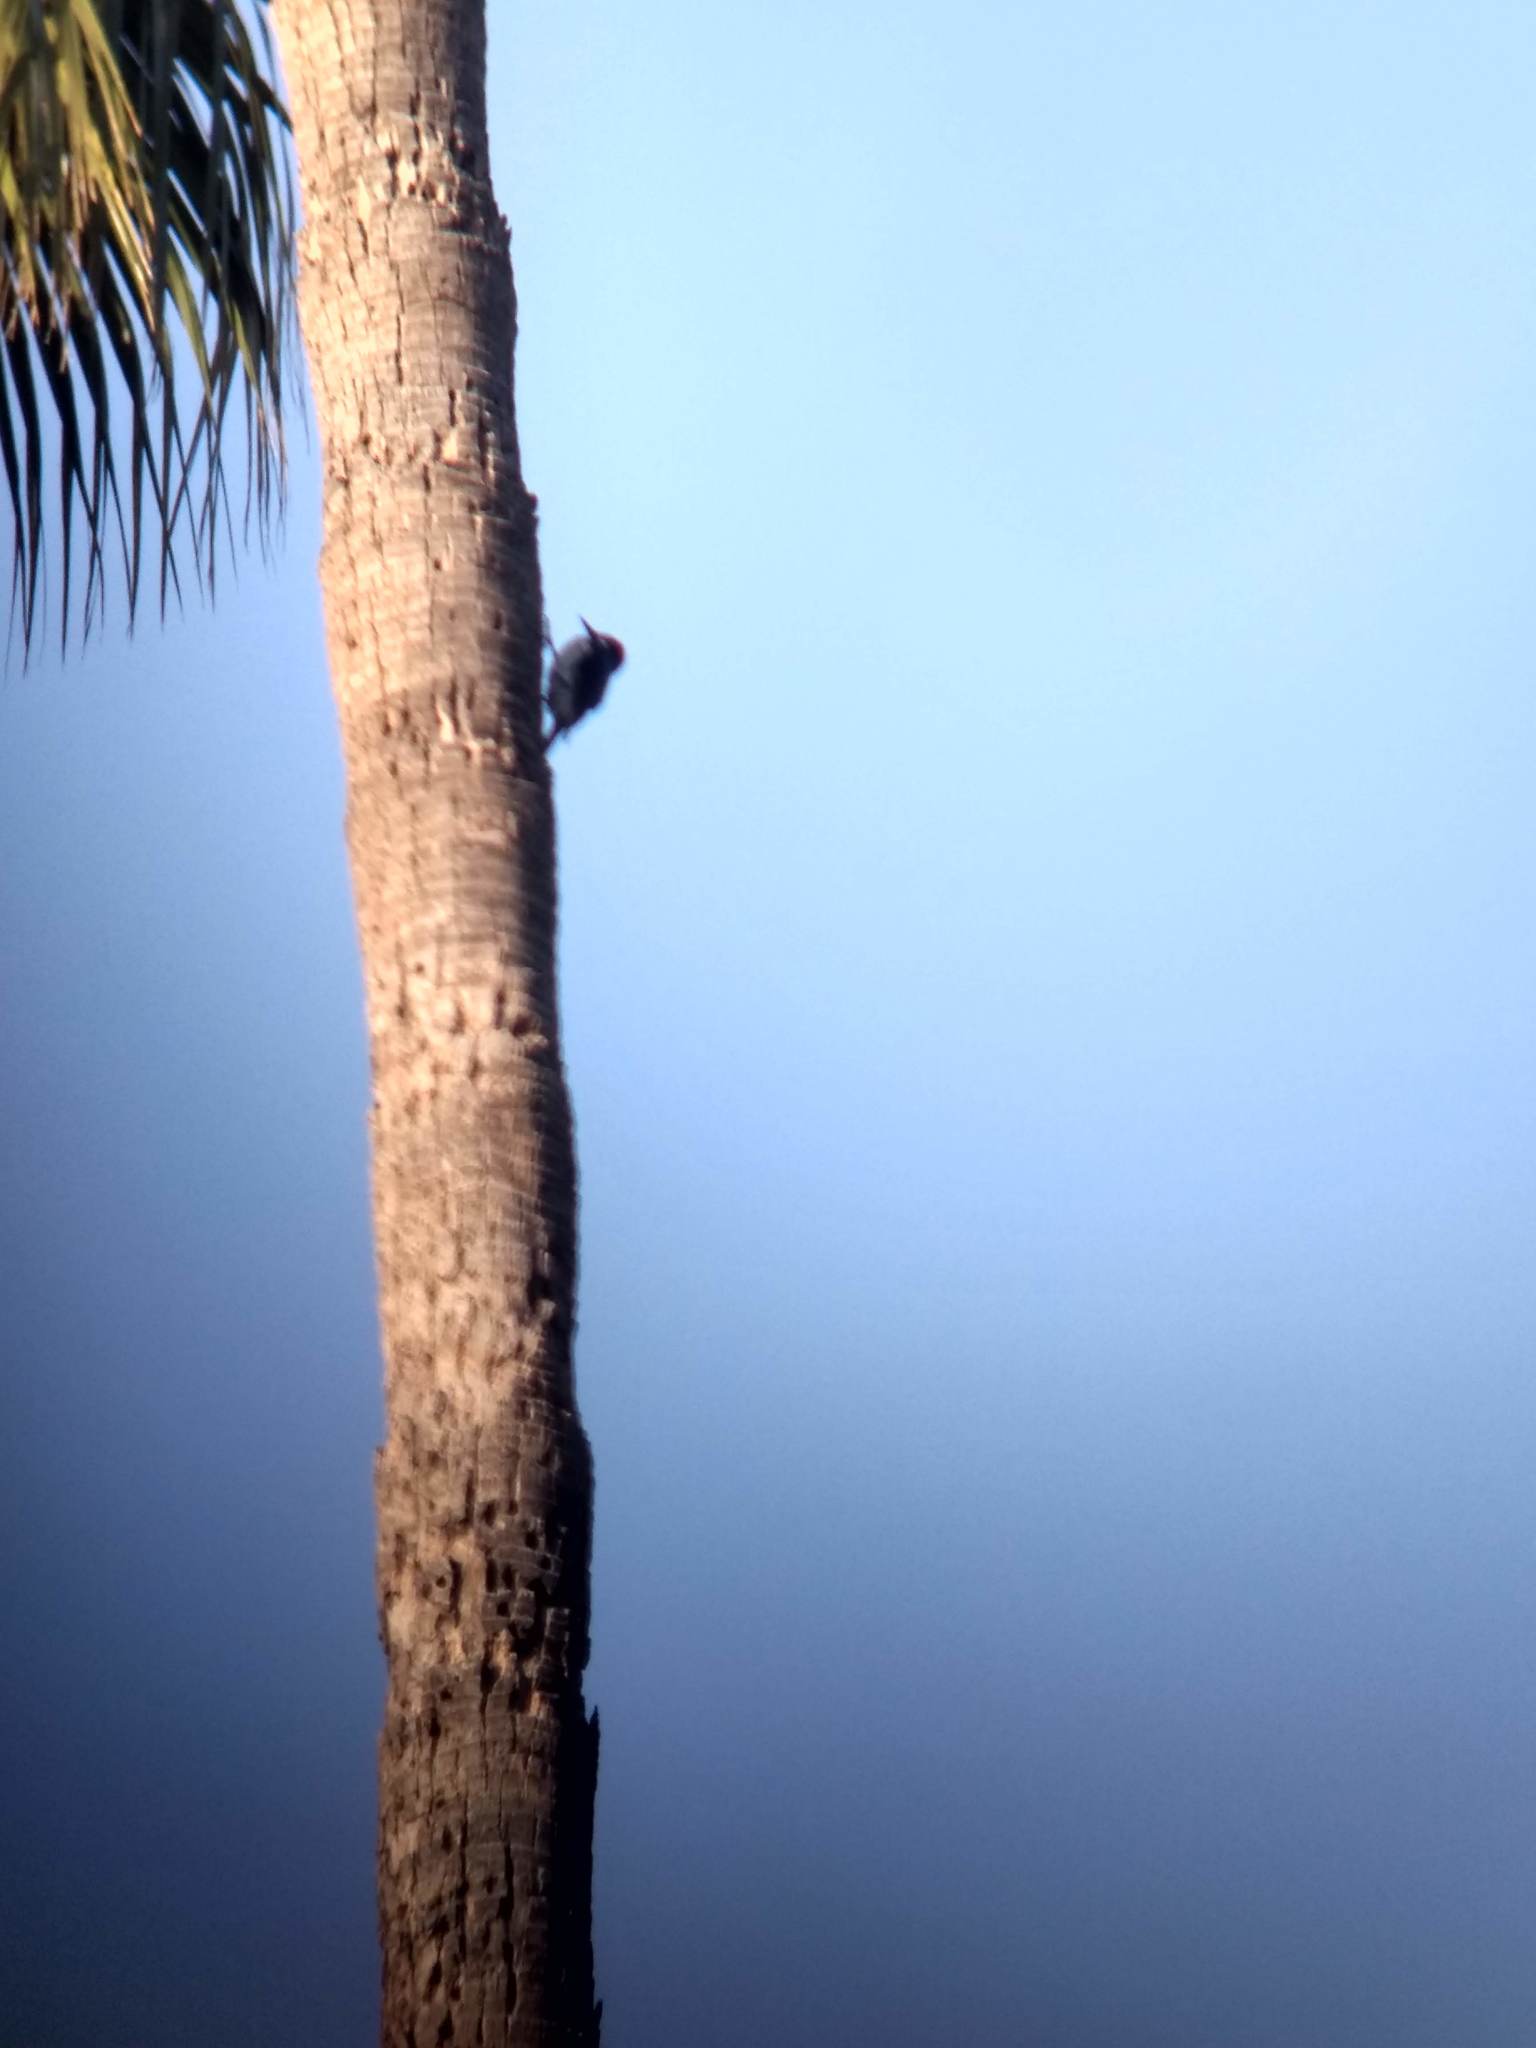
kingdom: Animalia
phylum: Chordata
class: Aves
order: Piciformes
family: Picidae
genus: Melanerpes
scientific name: Melanerpes formicivorus
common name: Acorn woodpecker
